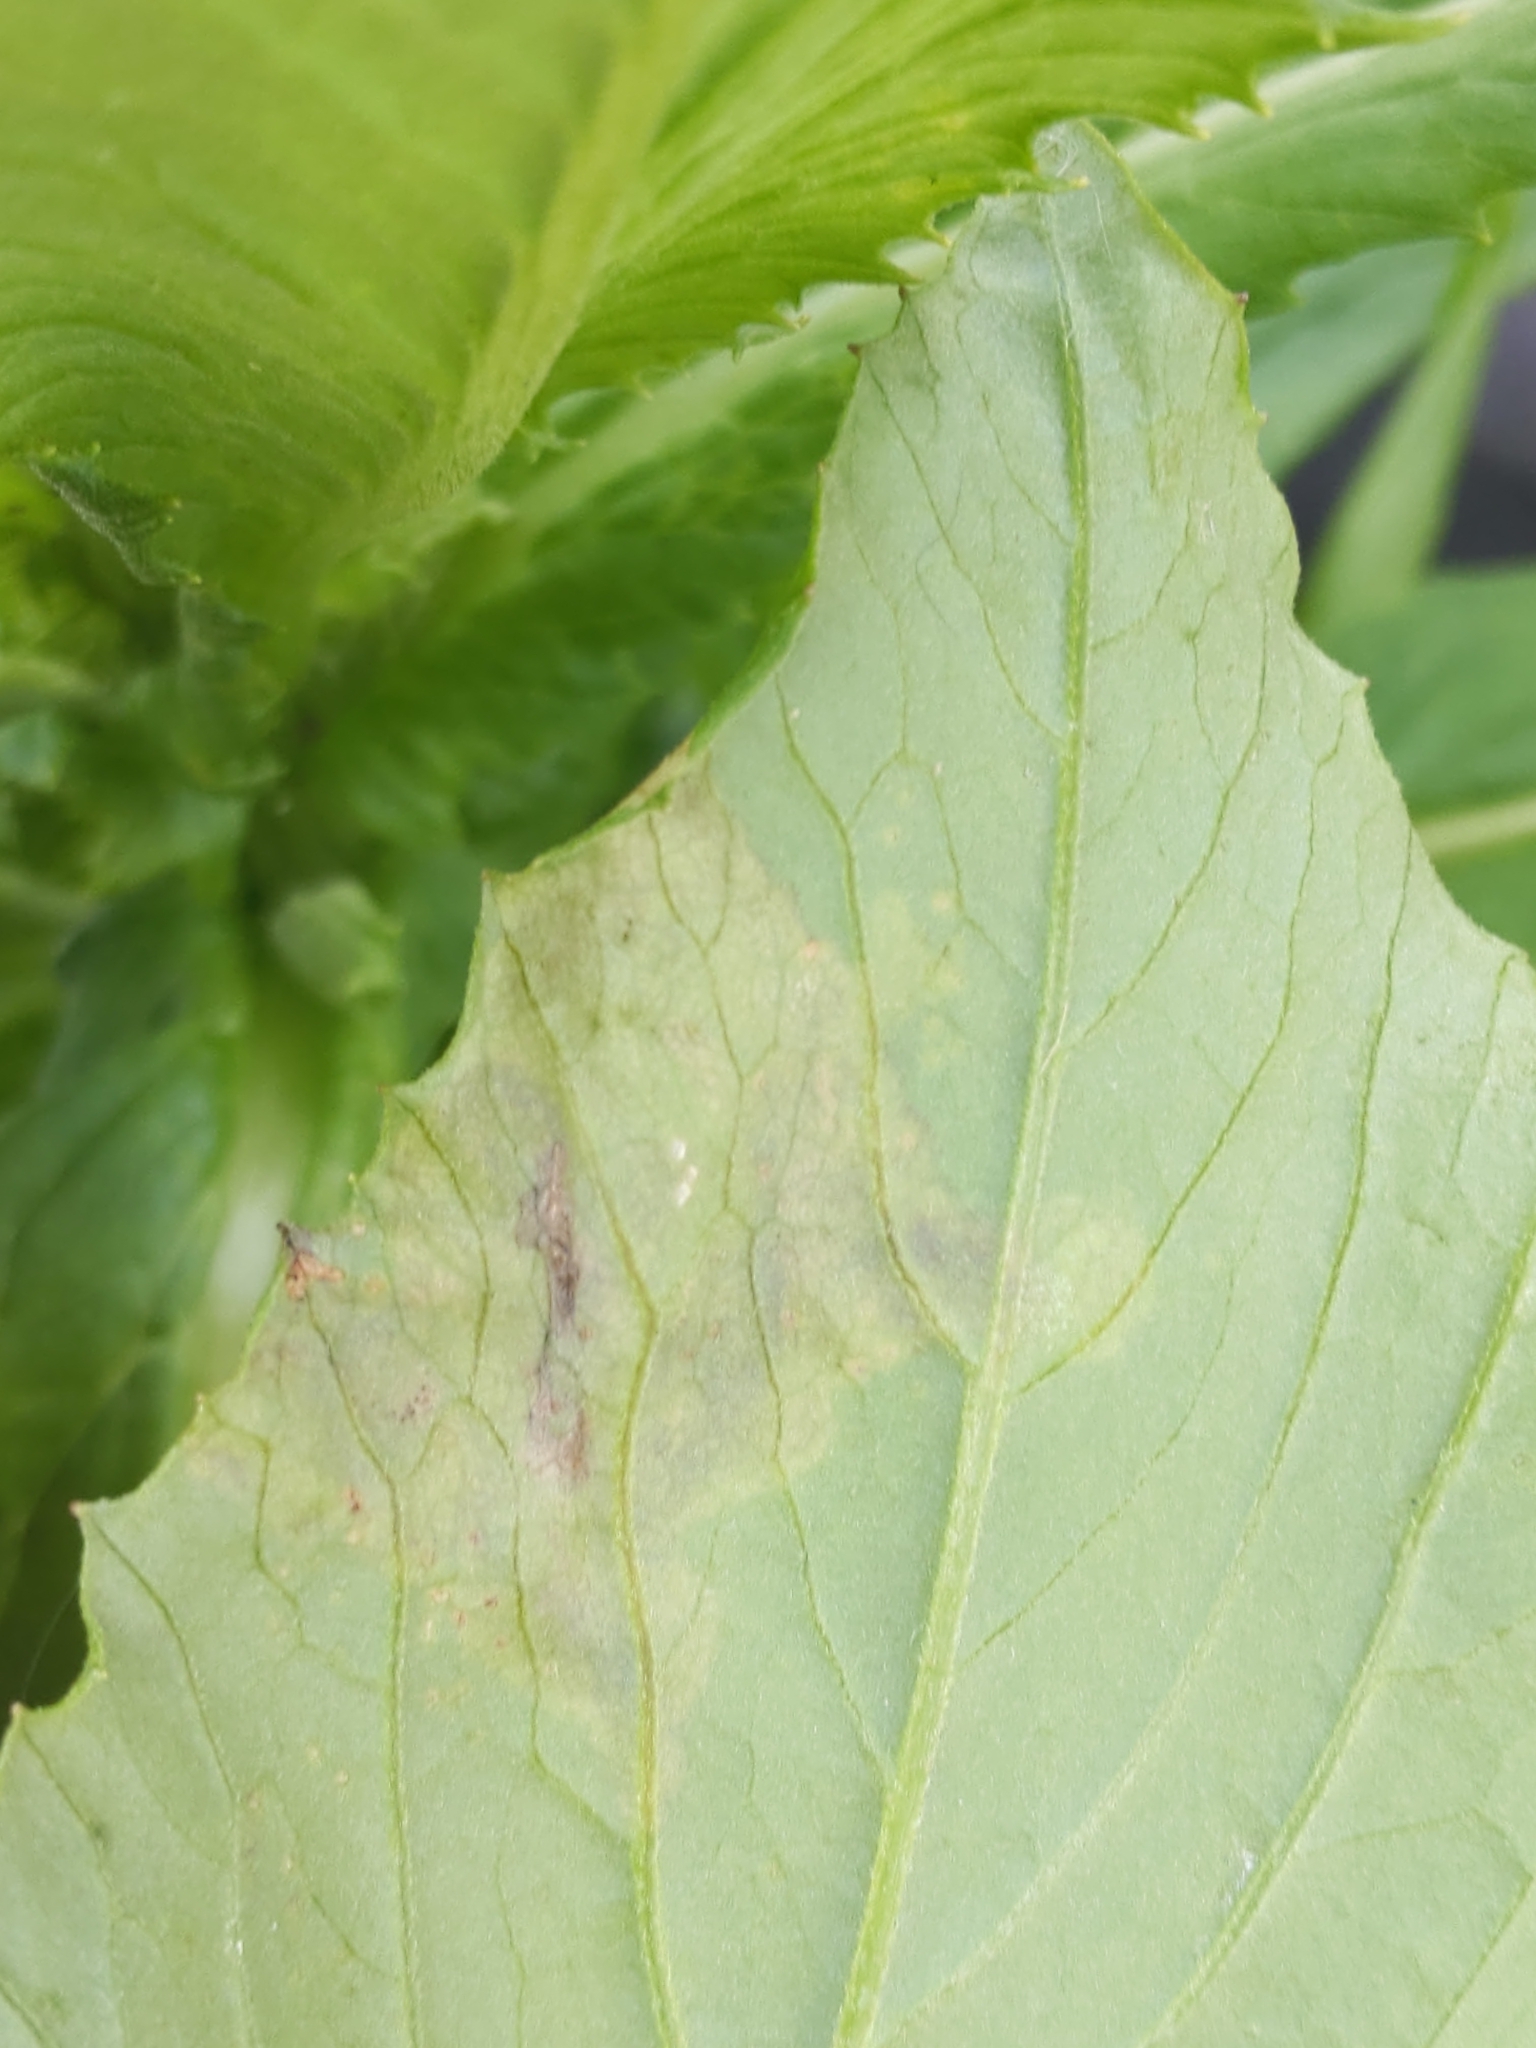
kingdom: Animalia
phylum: Arthropoda
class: Insecta
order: Diptera
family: Agromyzidae
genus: Nemorimyza
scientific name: Nemorimyza maculosa
